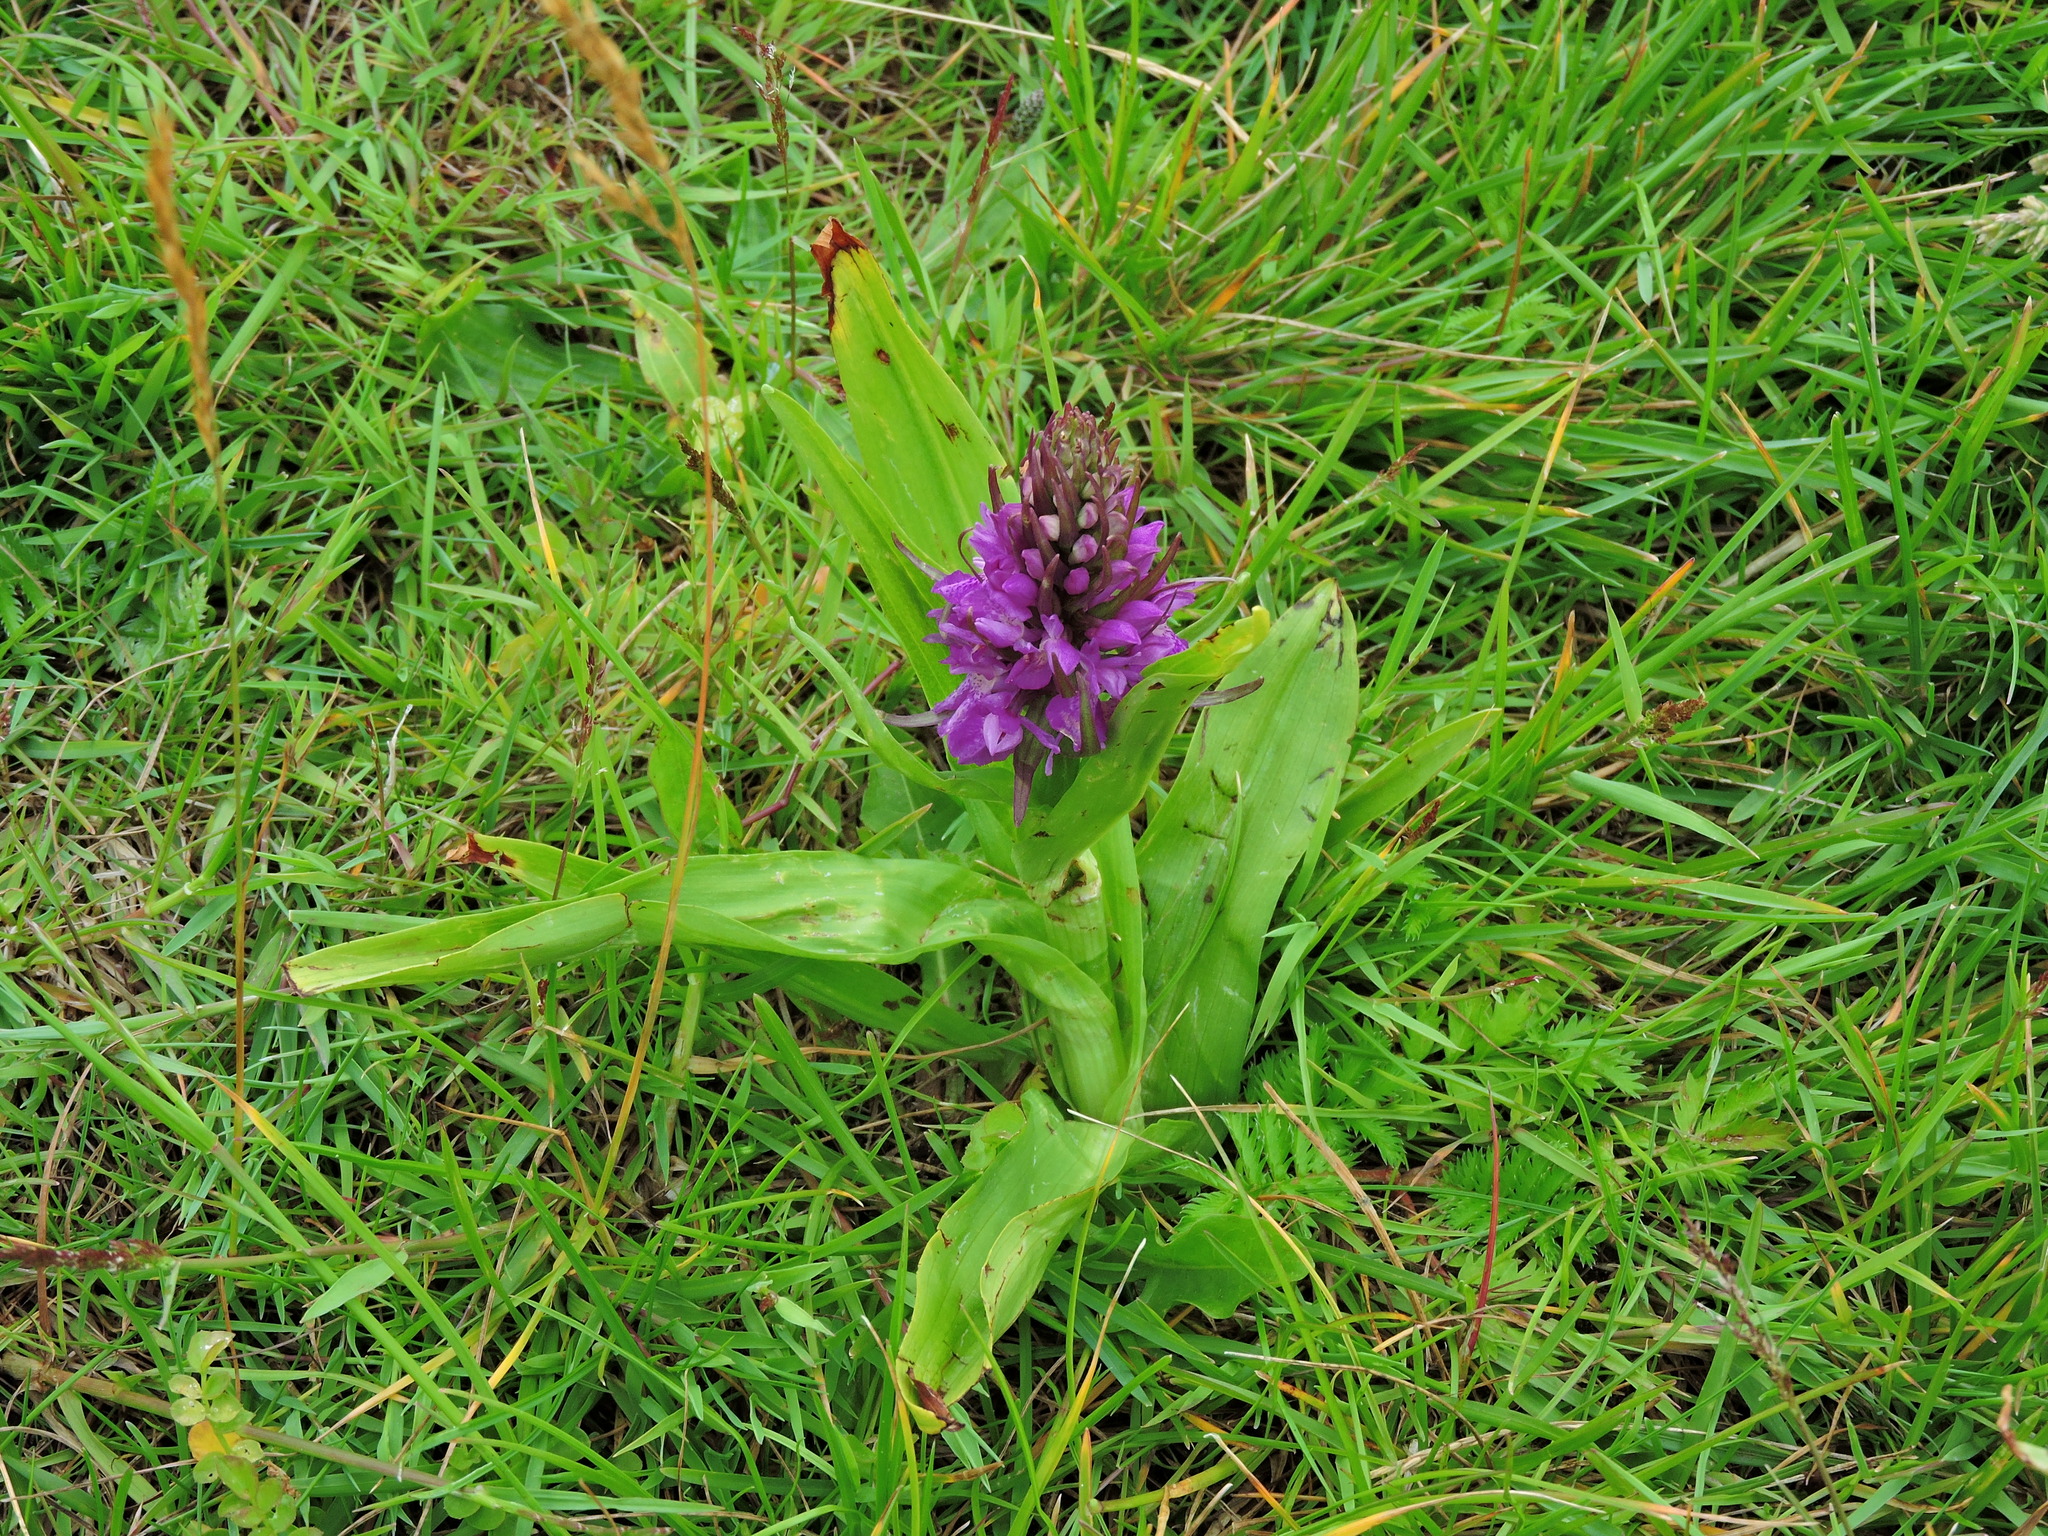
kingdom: Plantae
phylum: Tracheophyta
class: Liliopsida
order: Asparagales
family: Orchidaceae
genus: Dactylorhiza
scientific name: Dactylorhiza majalis
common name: Marsh orchid
